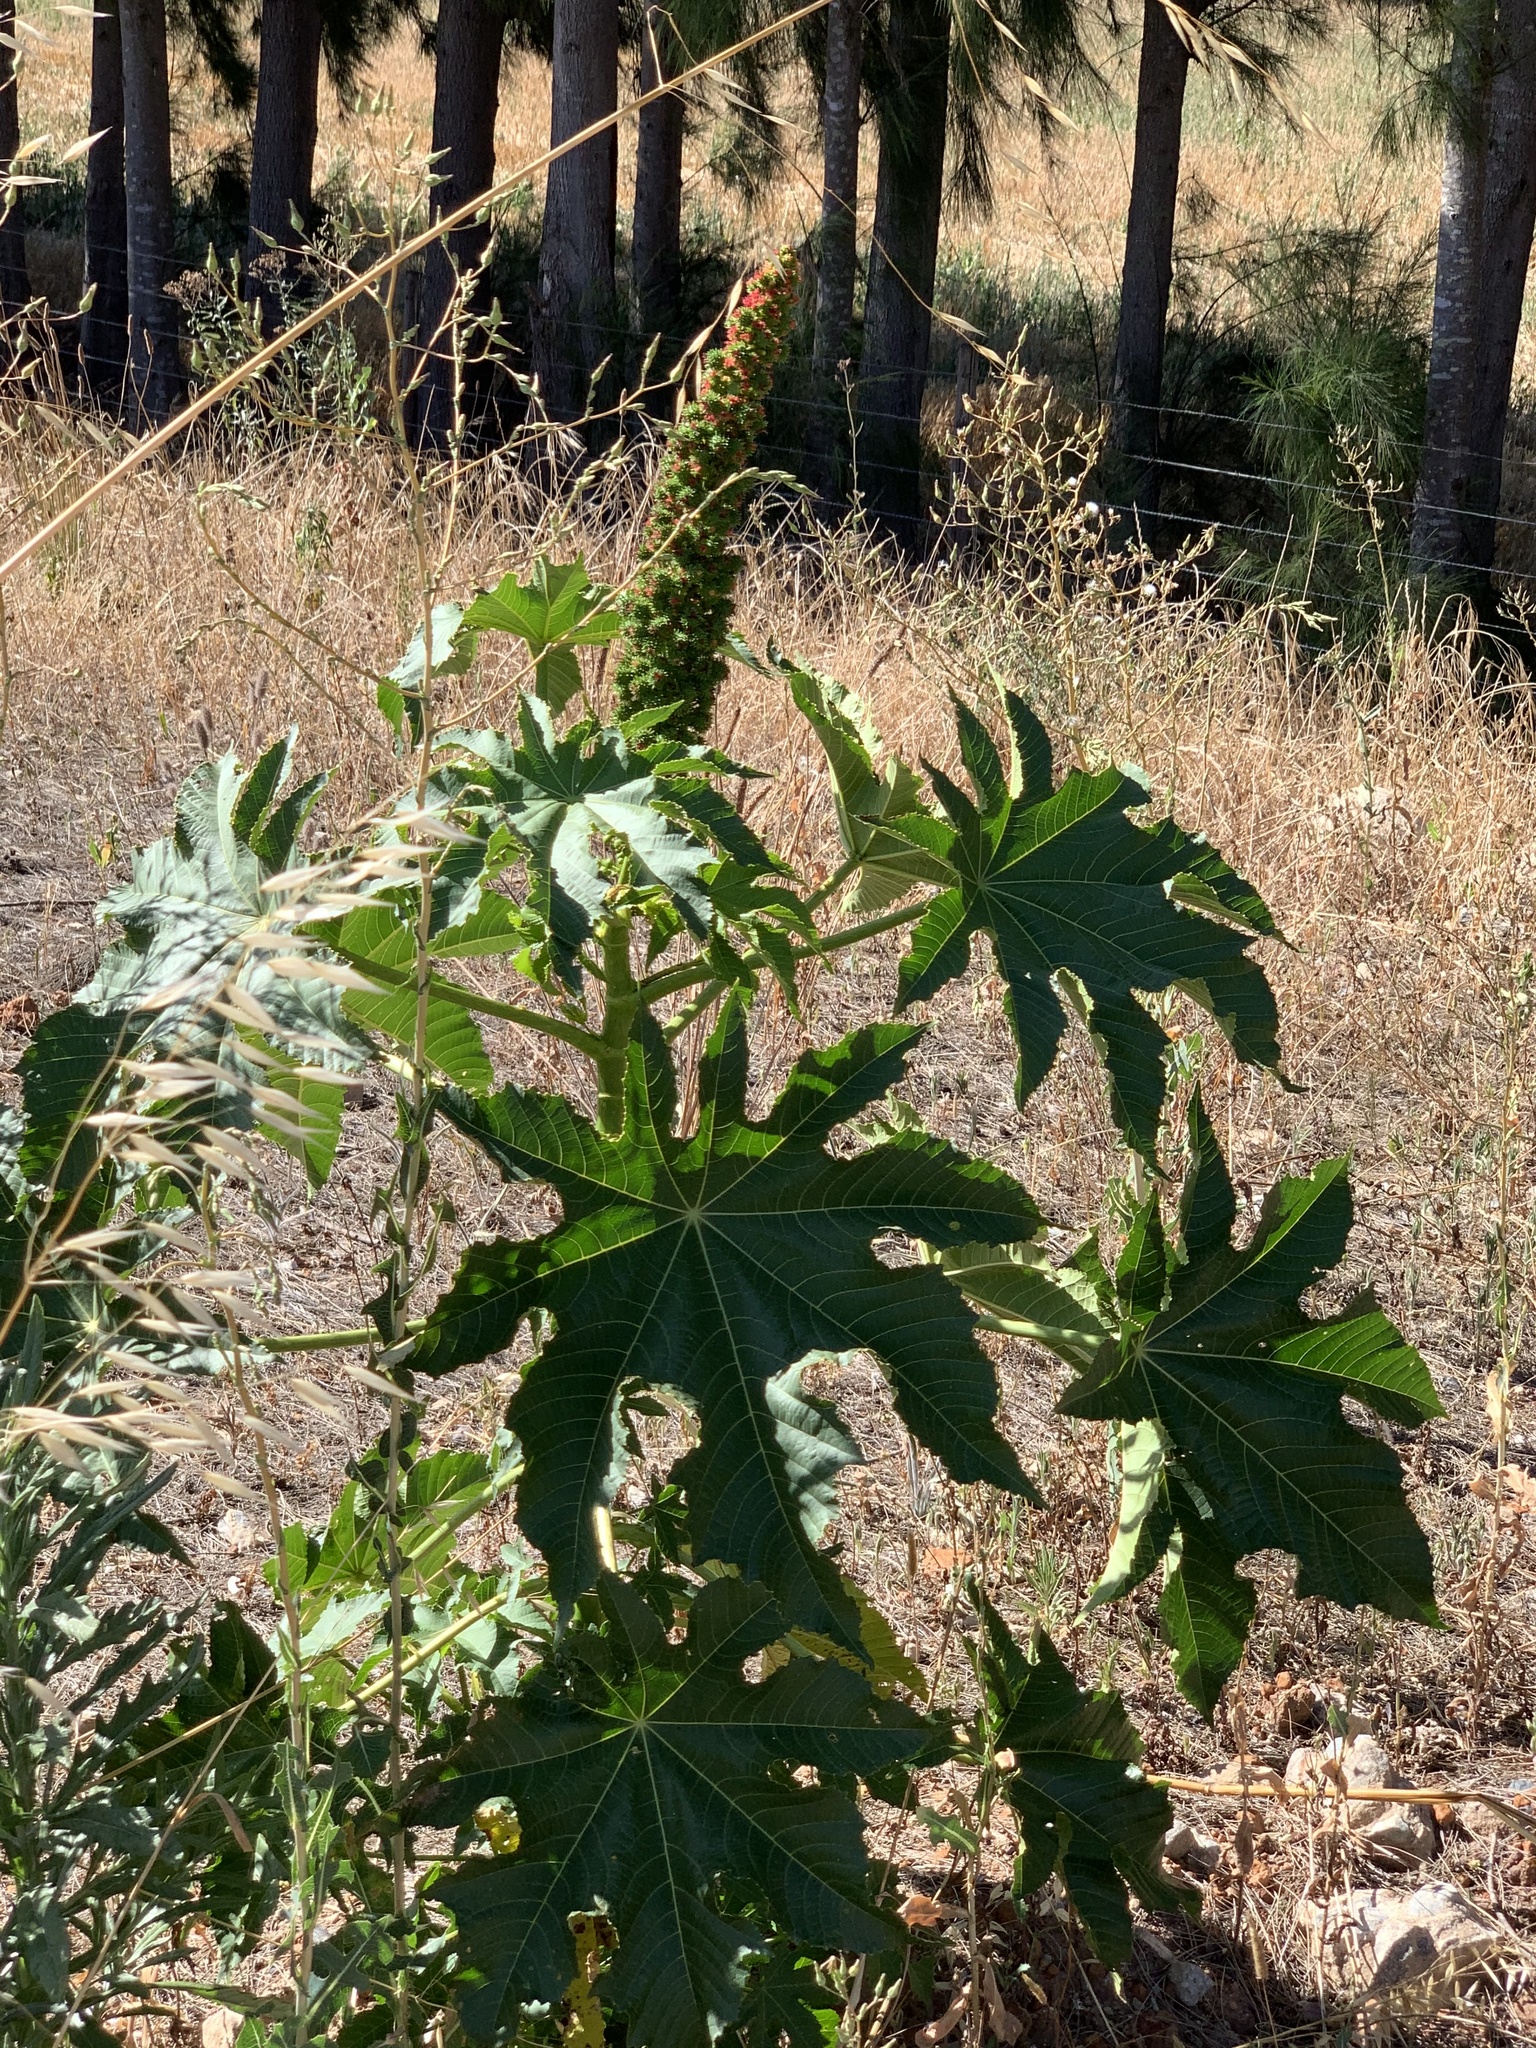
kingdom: Plantae
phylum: Tracheophyta
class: Magnoliopsida
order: Malpighiales
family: Euphorbiaceae
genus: Ricinus
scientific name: Ricinus communis
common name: Castor-oil-plant
